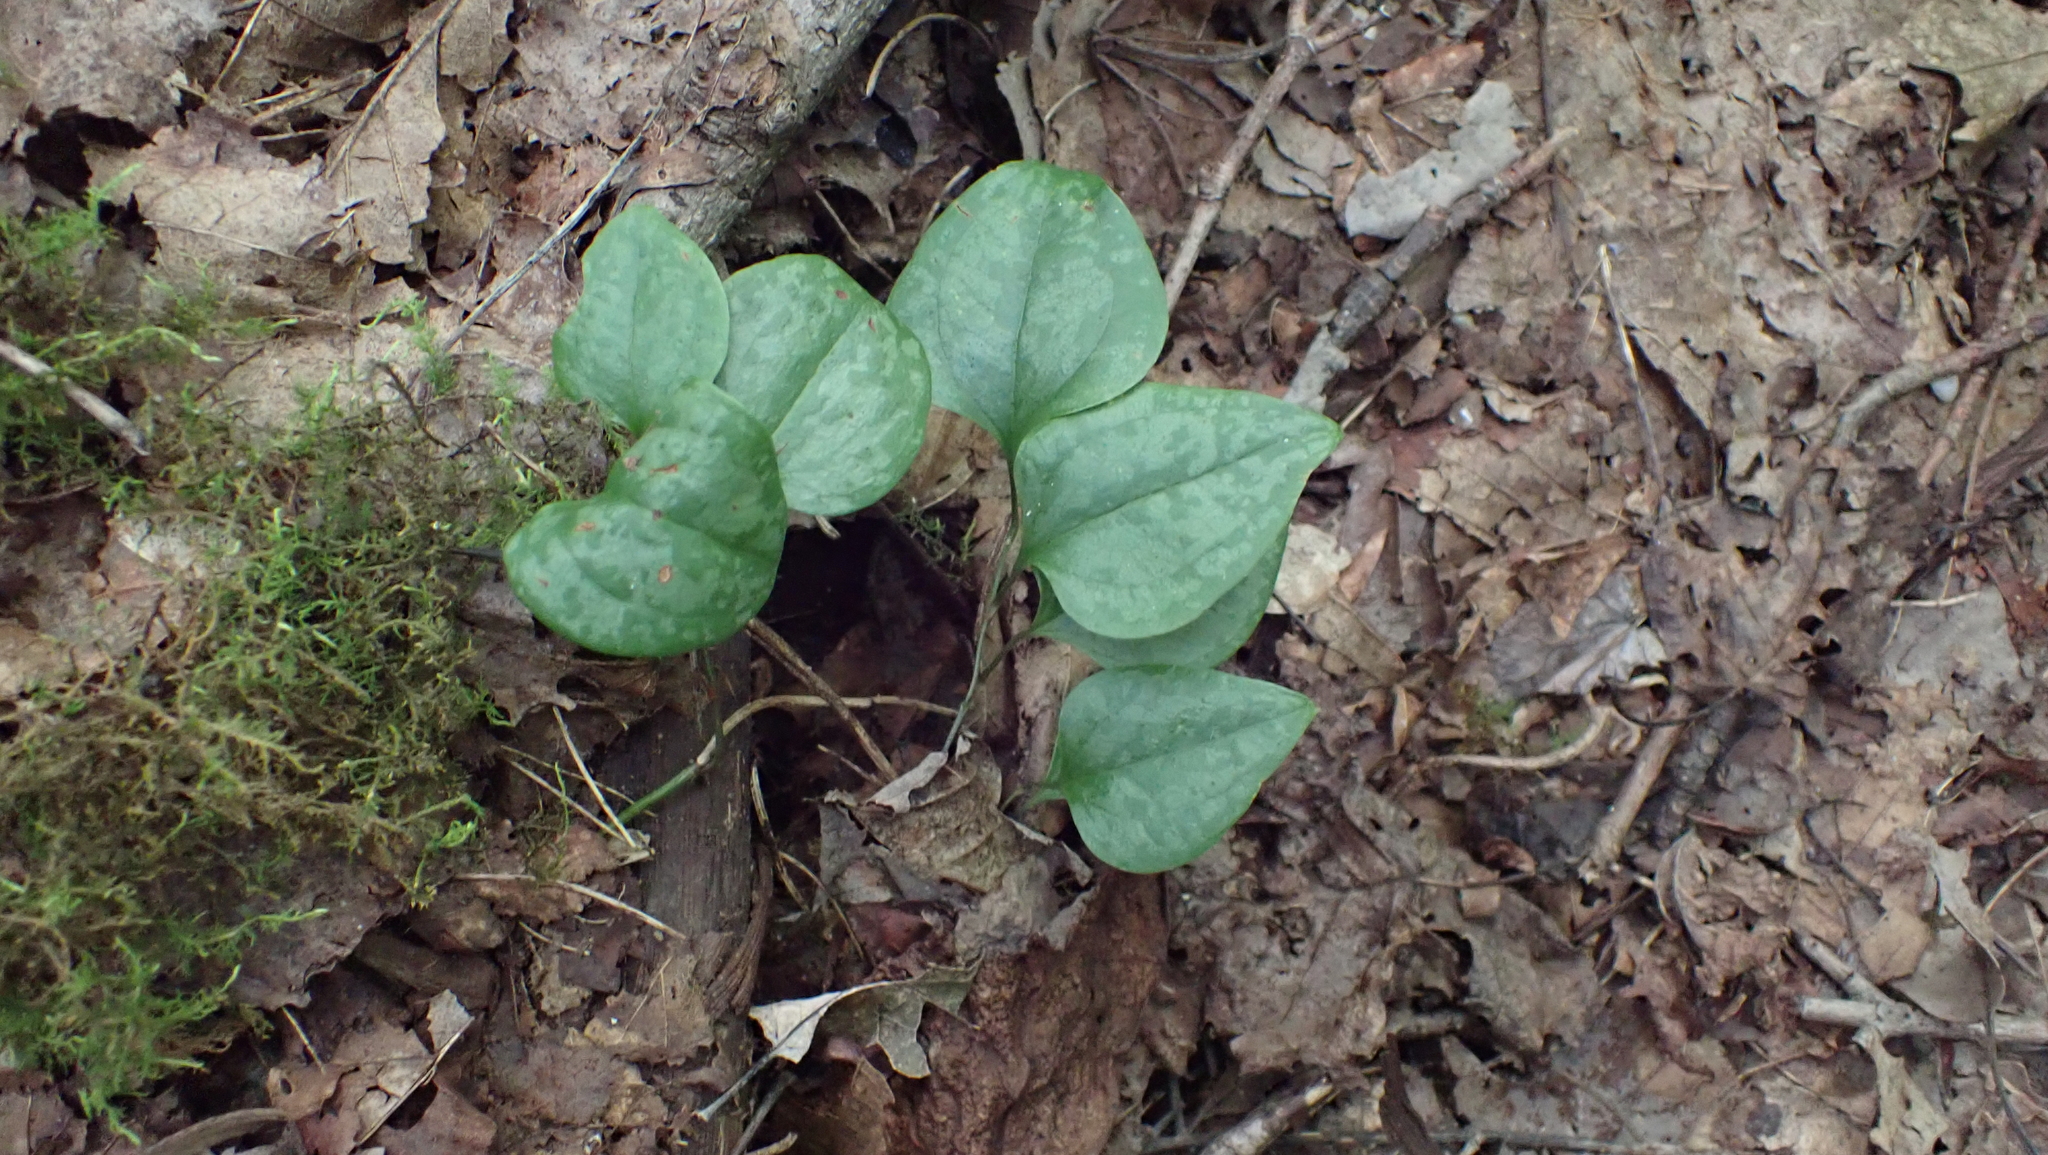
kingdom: Plantae
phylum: Tracheophyta
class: Liliopsida
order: Liliales
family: Smilacaceae
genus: Smilax
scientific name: Smilax glauca
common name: Cat greenbrier
